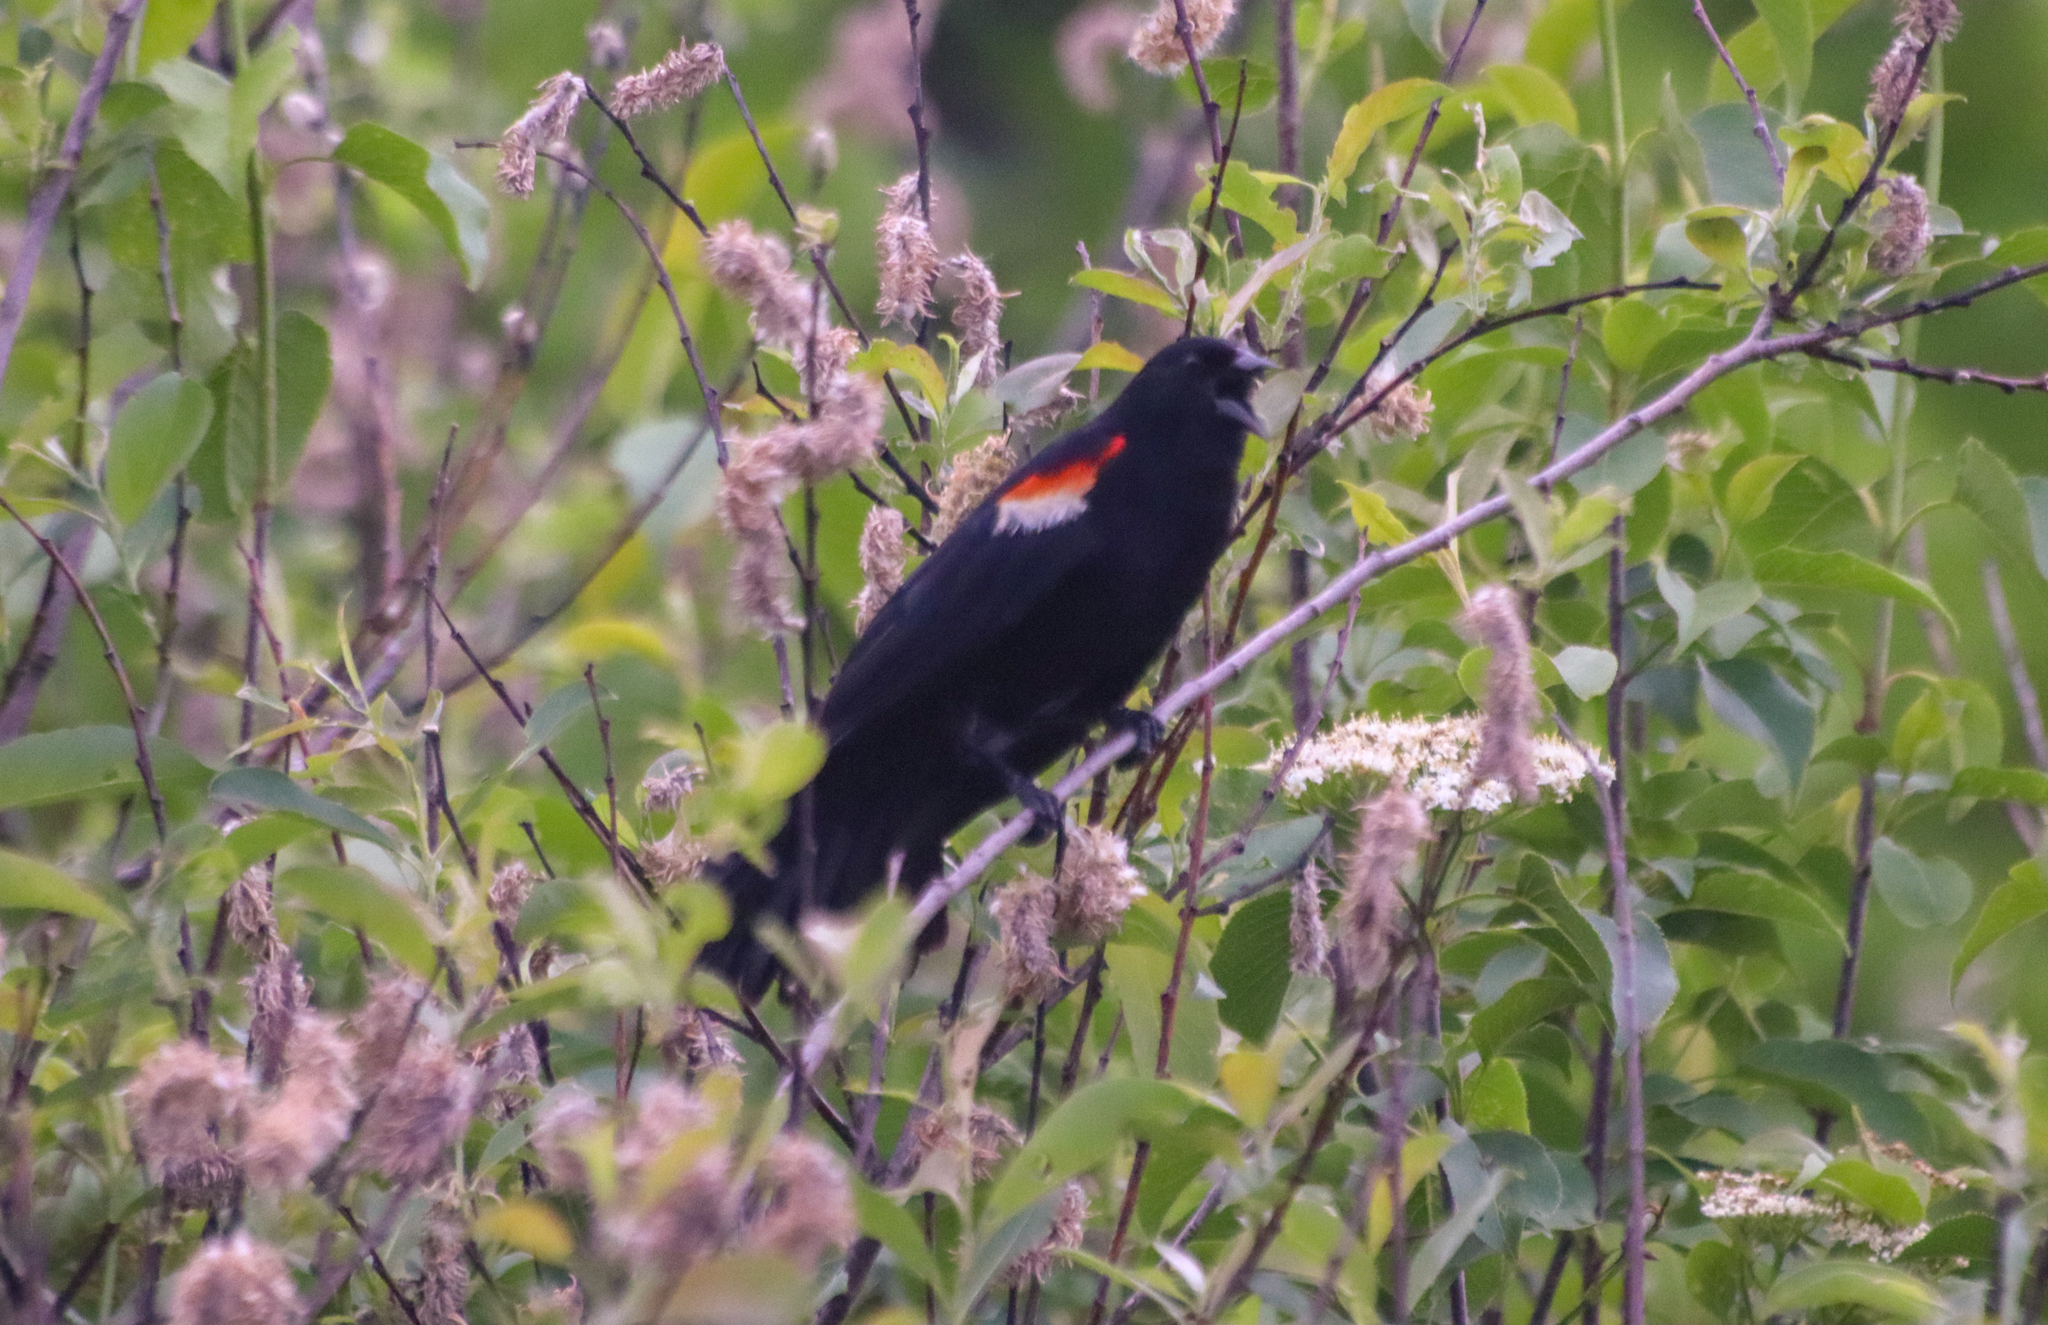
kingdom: Animalia
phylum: Chordata
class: Aves
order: Passeriformes
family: Icteridae
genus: Agelaius
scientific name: Agelaius phoeniceus
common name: Red-winged blackbird
